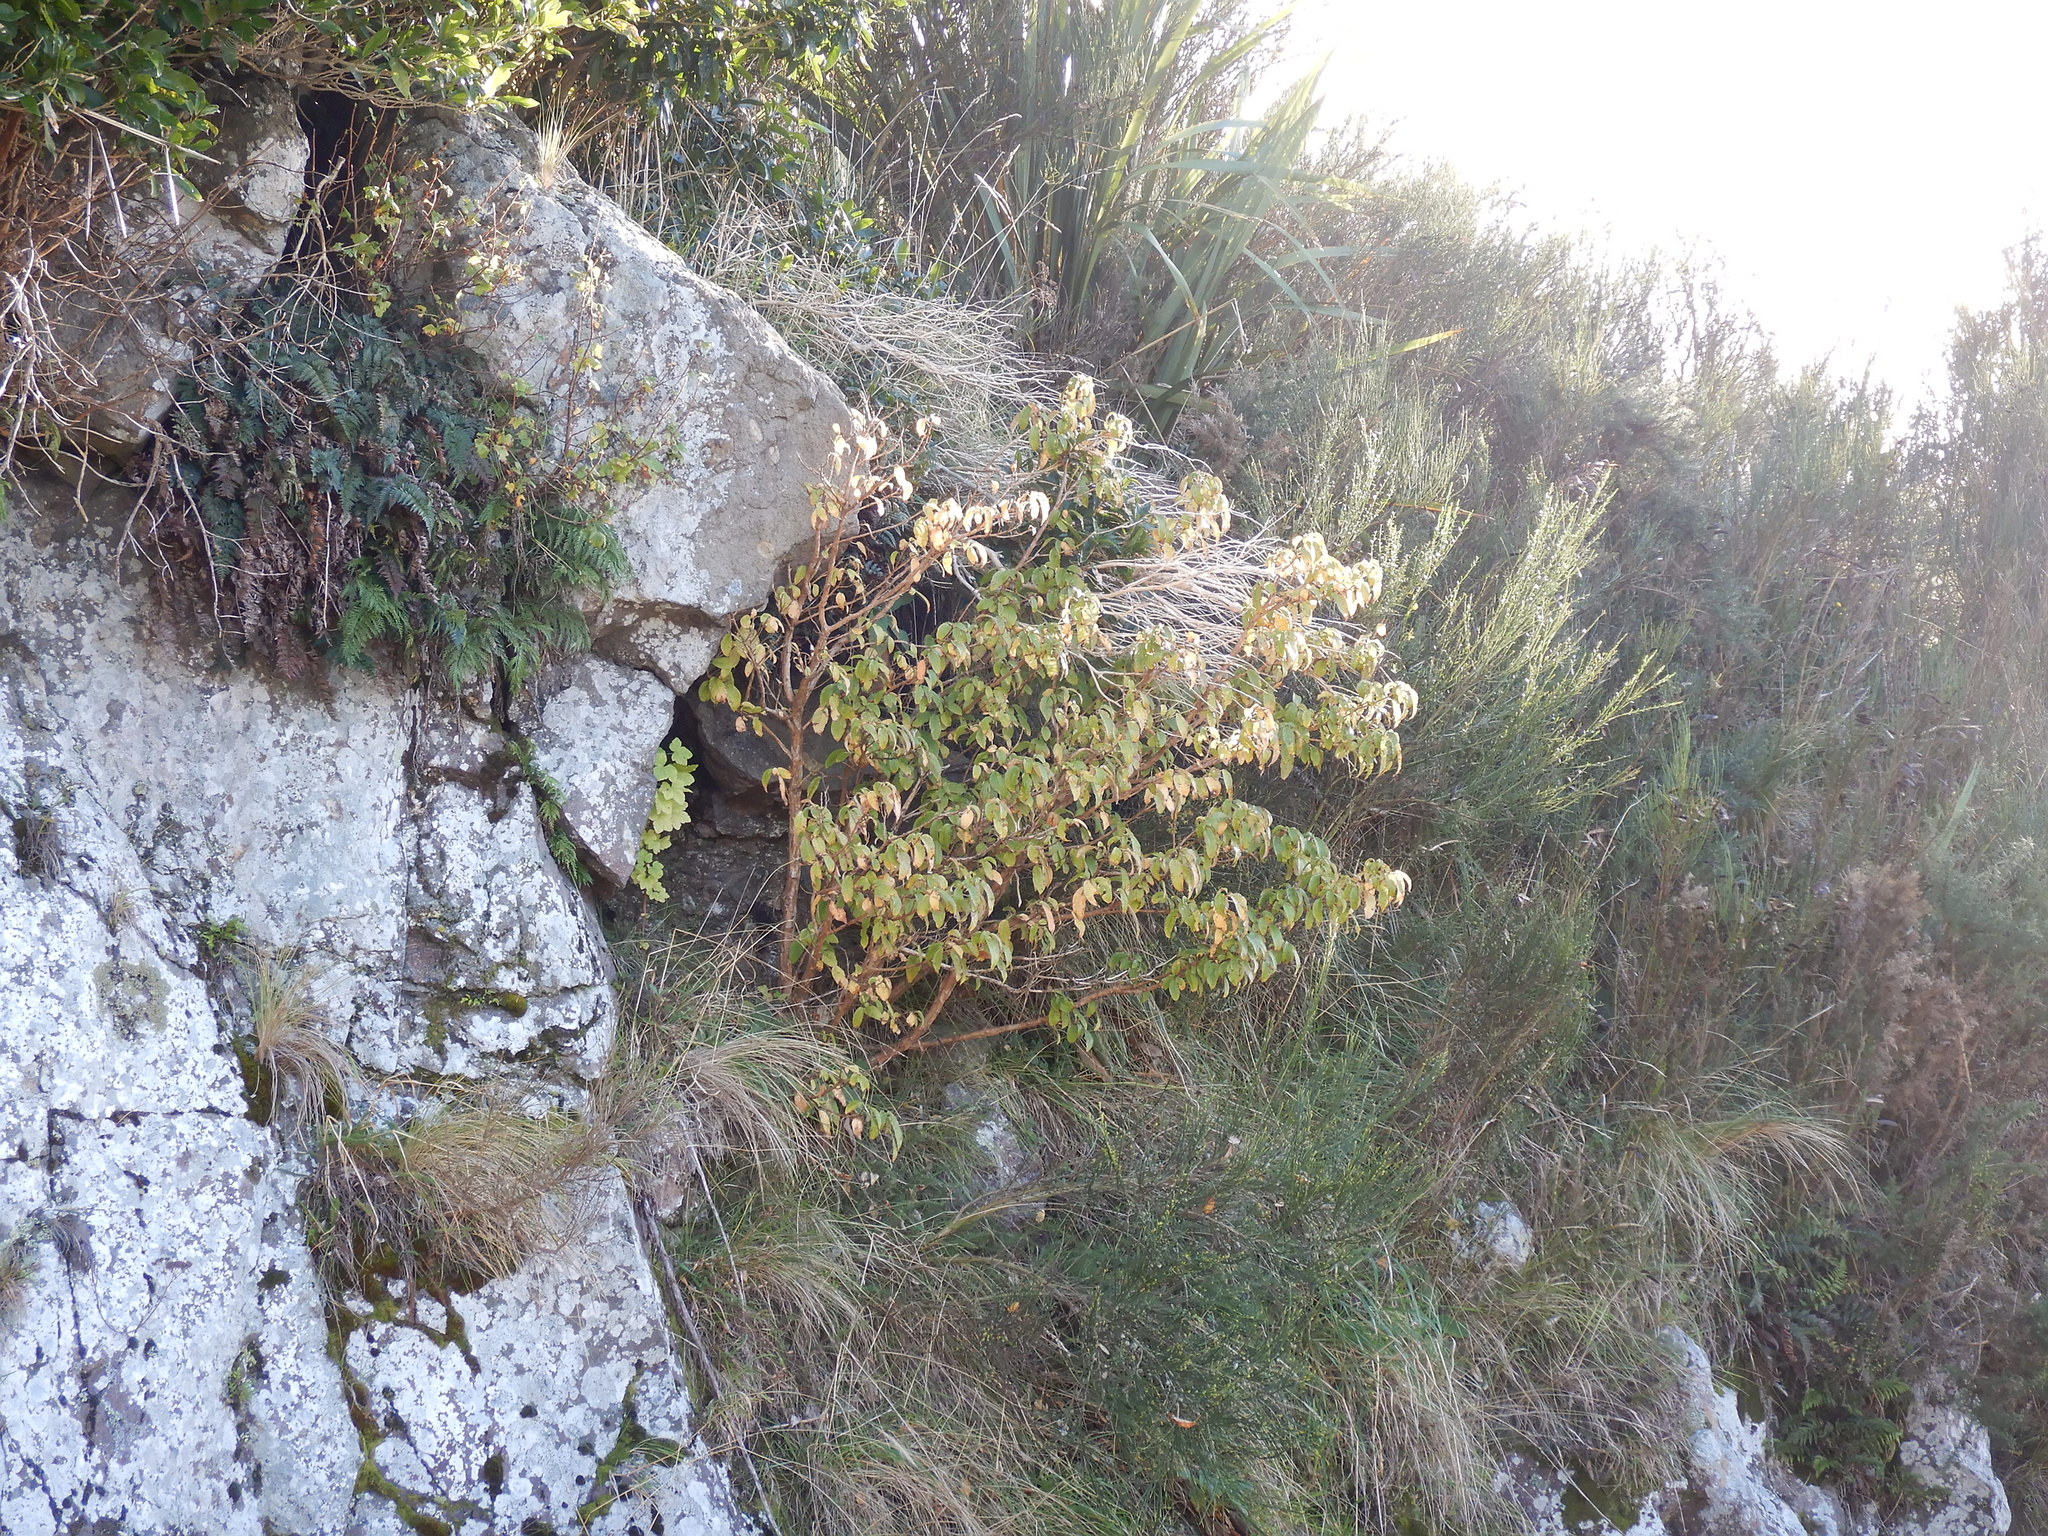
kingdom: Plantae
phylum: Tracheophyta
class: Magnoliopsida
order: Myrtales
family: Onagraceae
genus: Fuchsia
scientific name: Fuchsia excorticata
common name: Tree fuchsia
